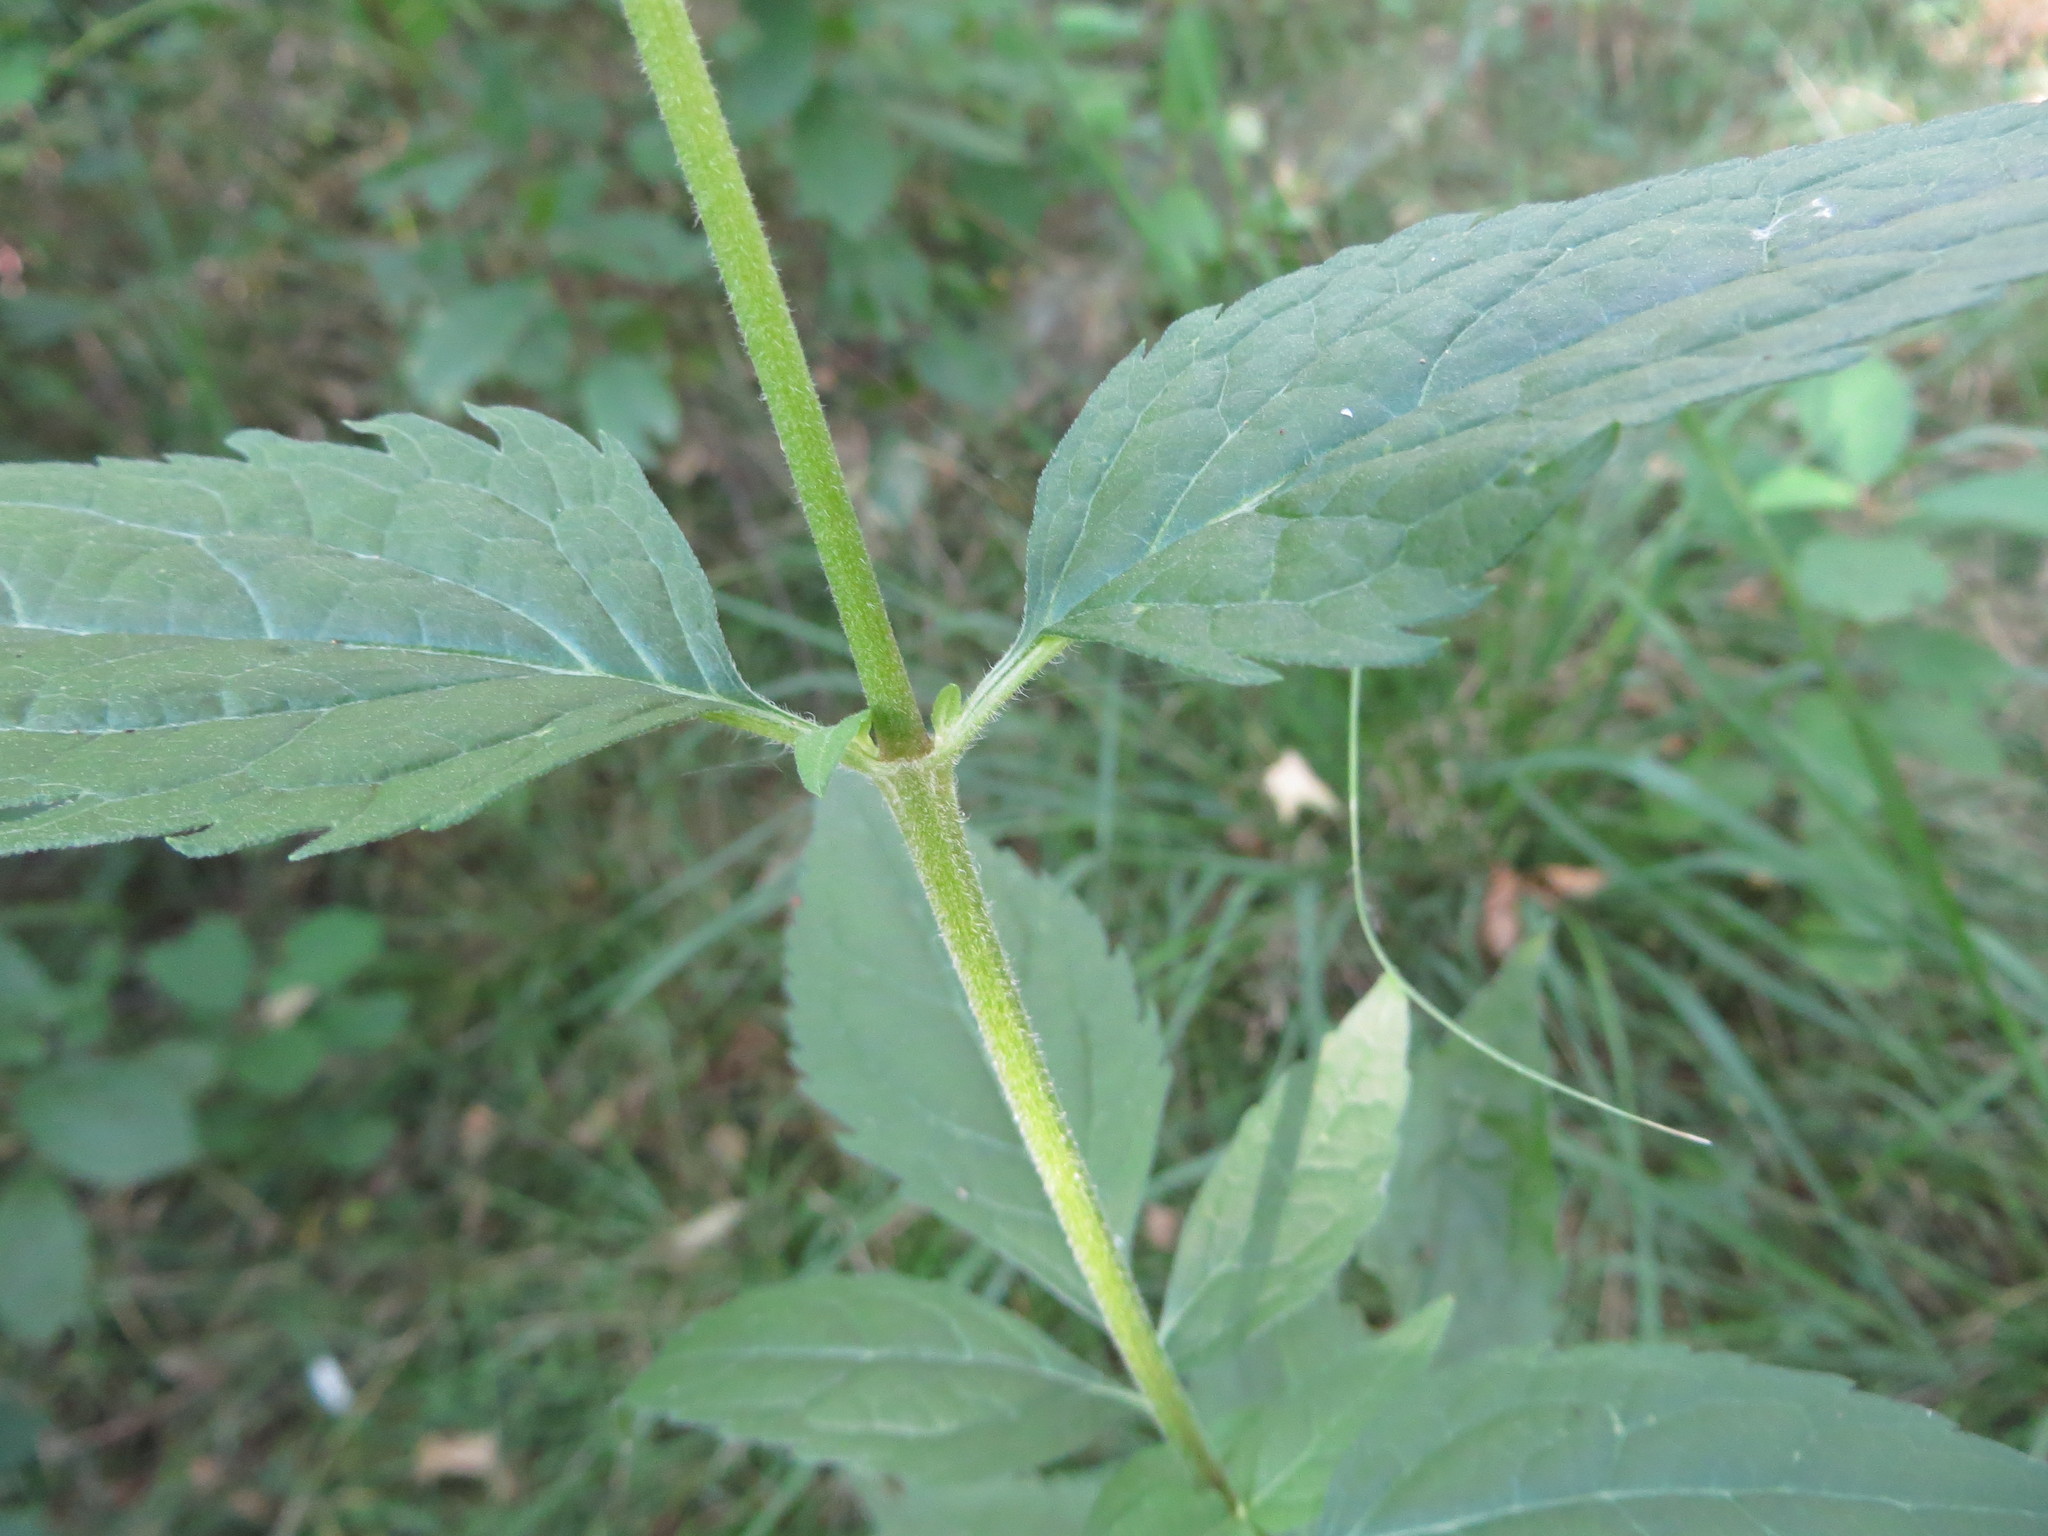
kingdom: Plantae
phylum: Tracheophyta
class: Magnoliopsida
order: Asterales
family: Asteraceae
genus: Eupatorium
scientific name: Eupatorium cannabinum
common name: Hemp-agrimony
